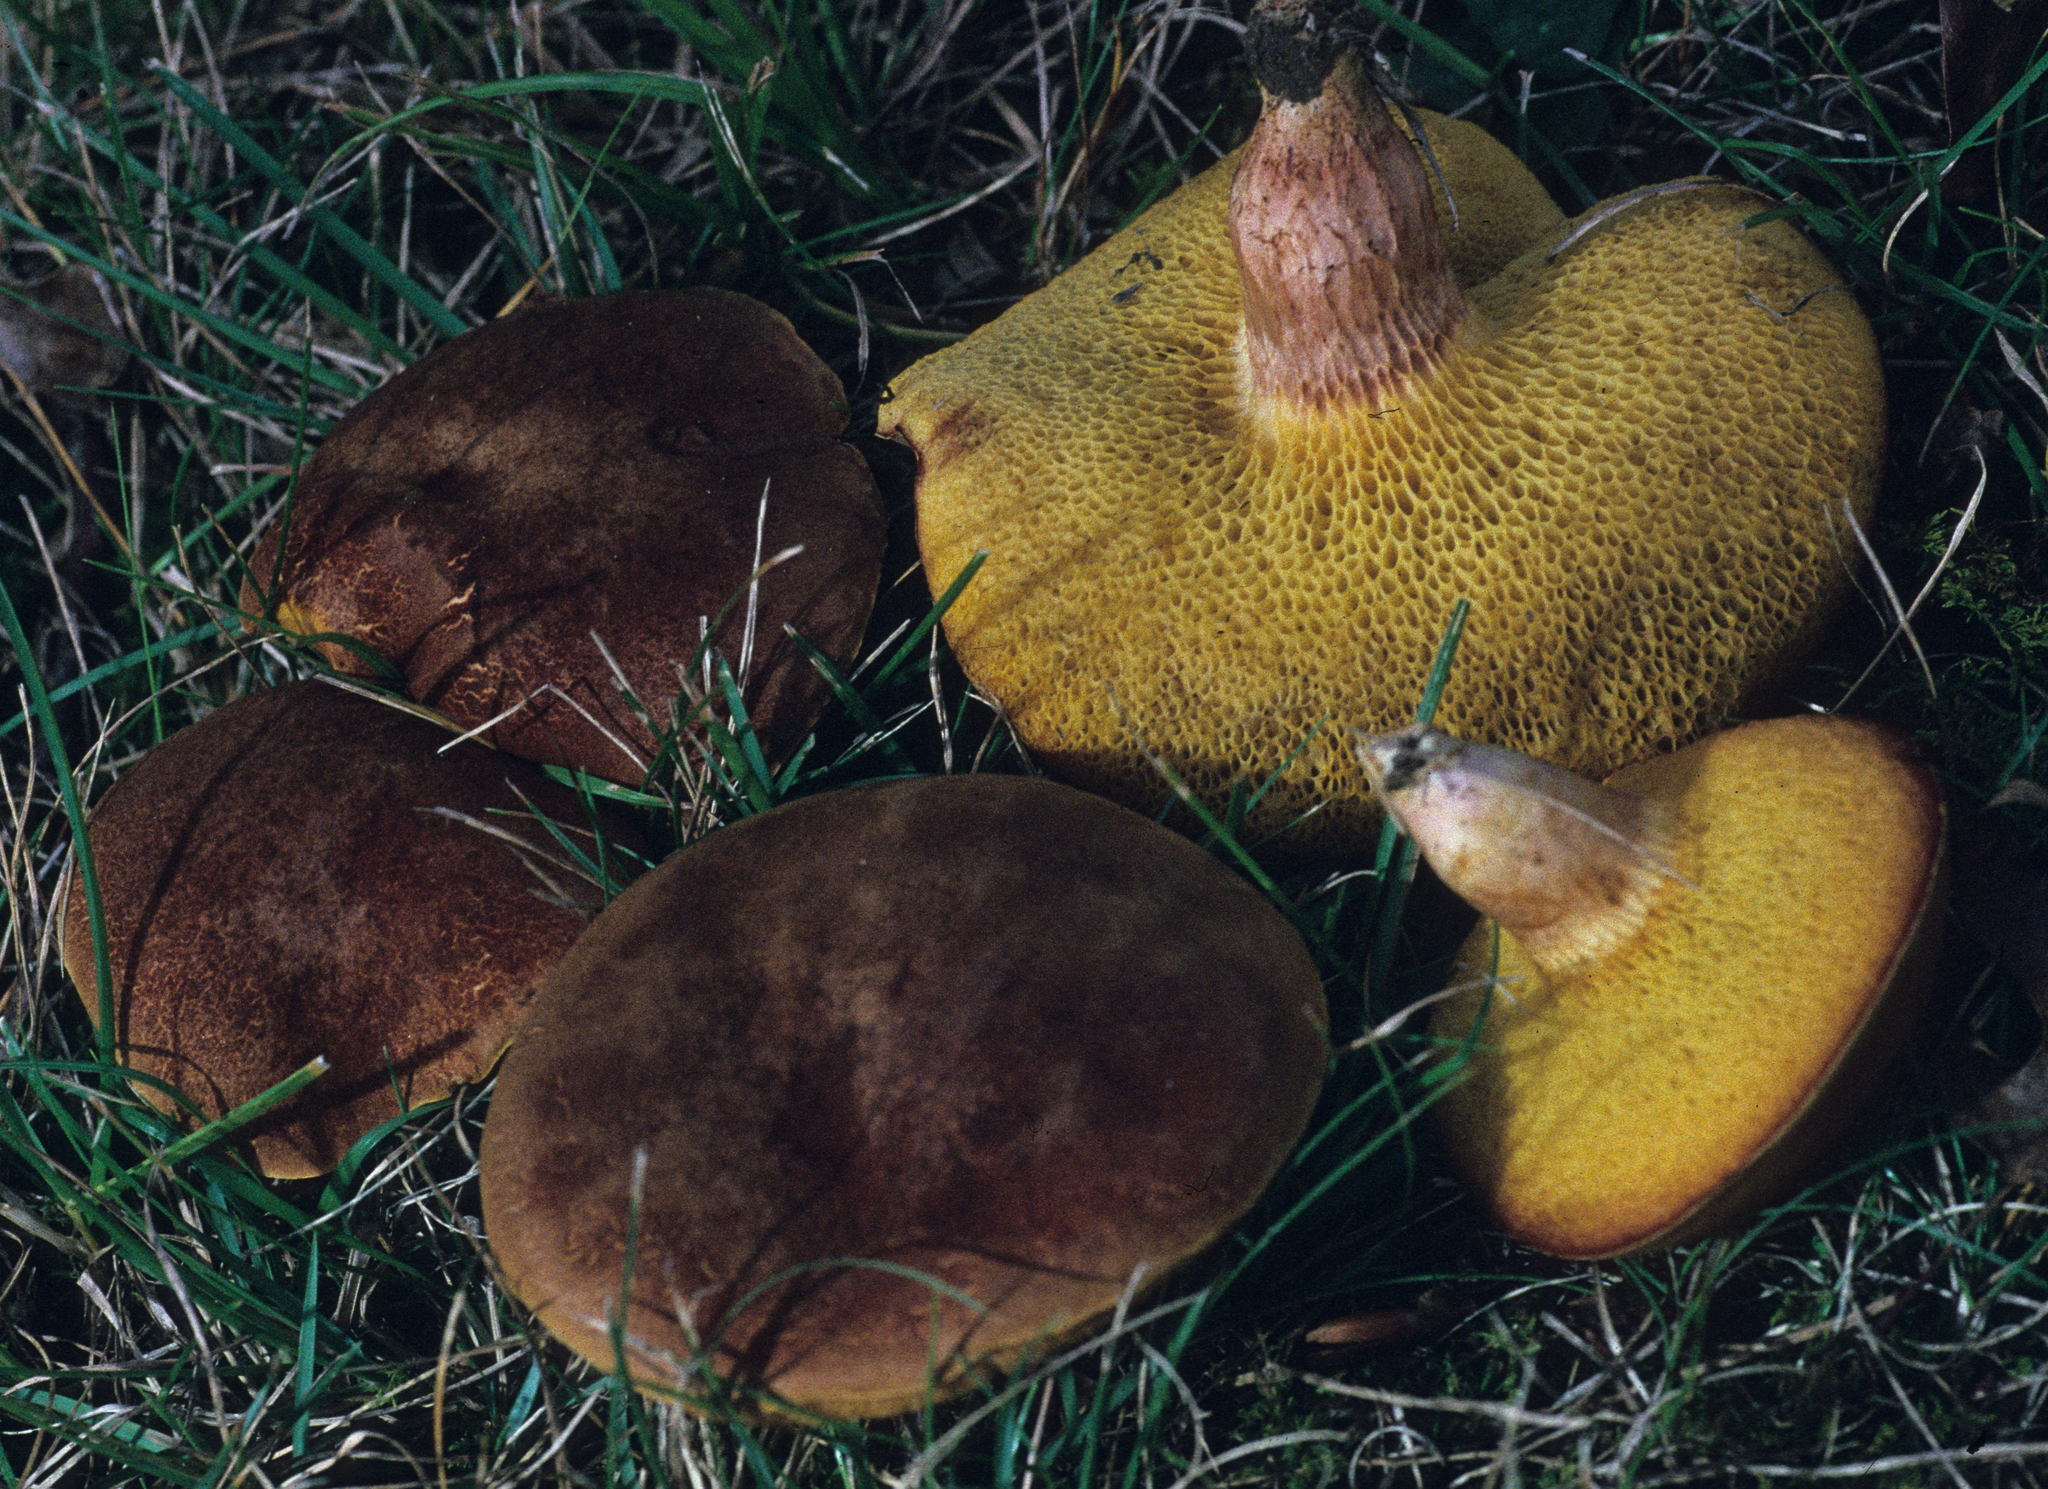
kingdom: Fungi
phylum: Basidiomycota
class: Agaricomycetes
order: Boletales
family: Boletaceae
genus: Xerocomus
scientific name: Xerocomus subtomentosus
